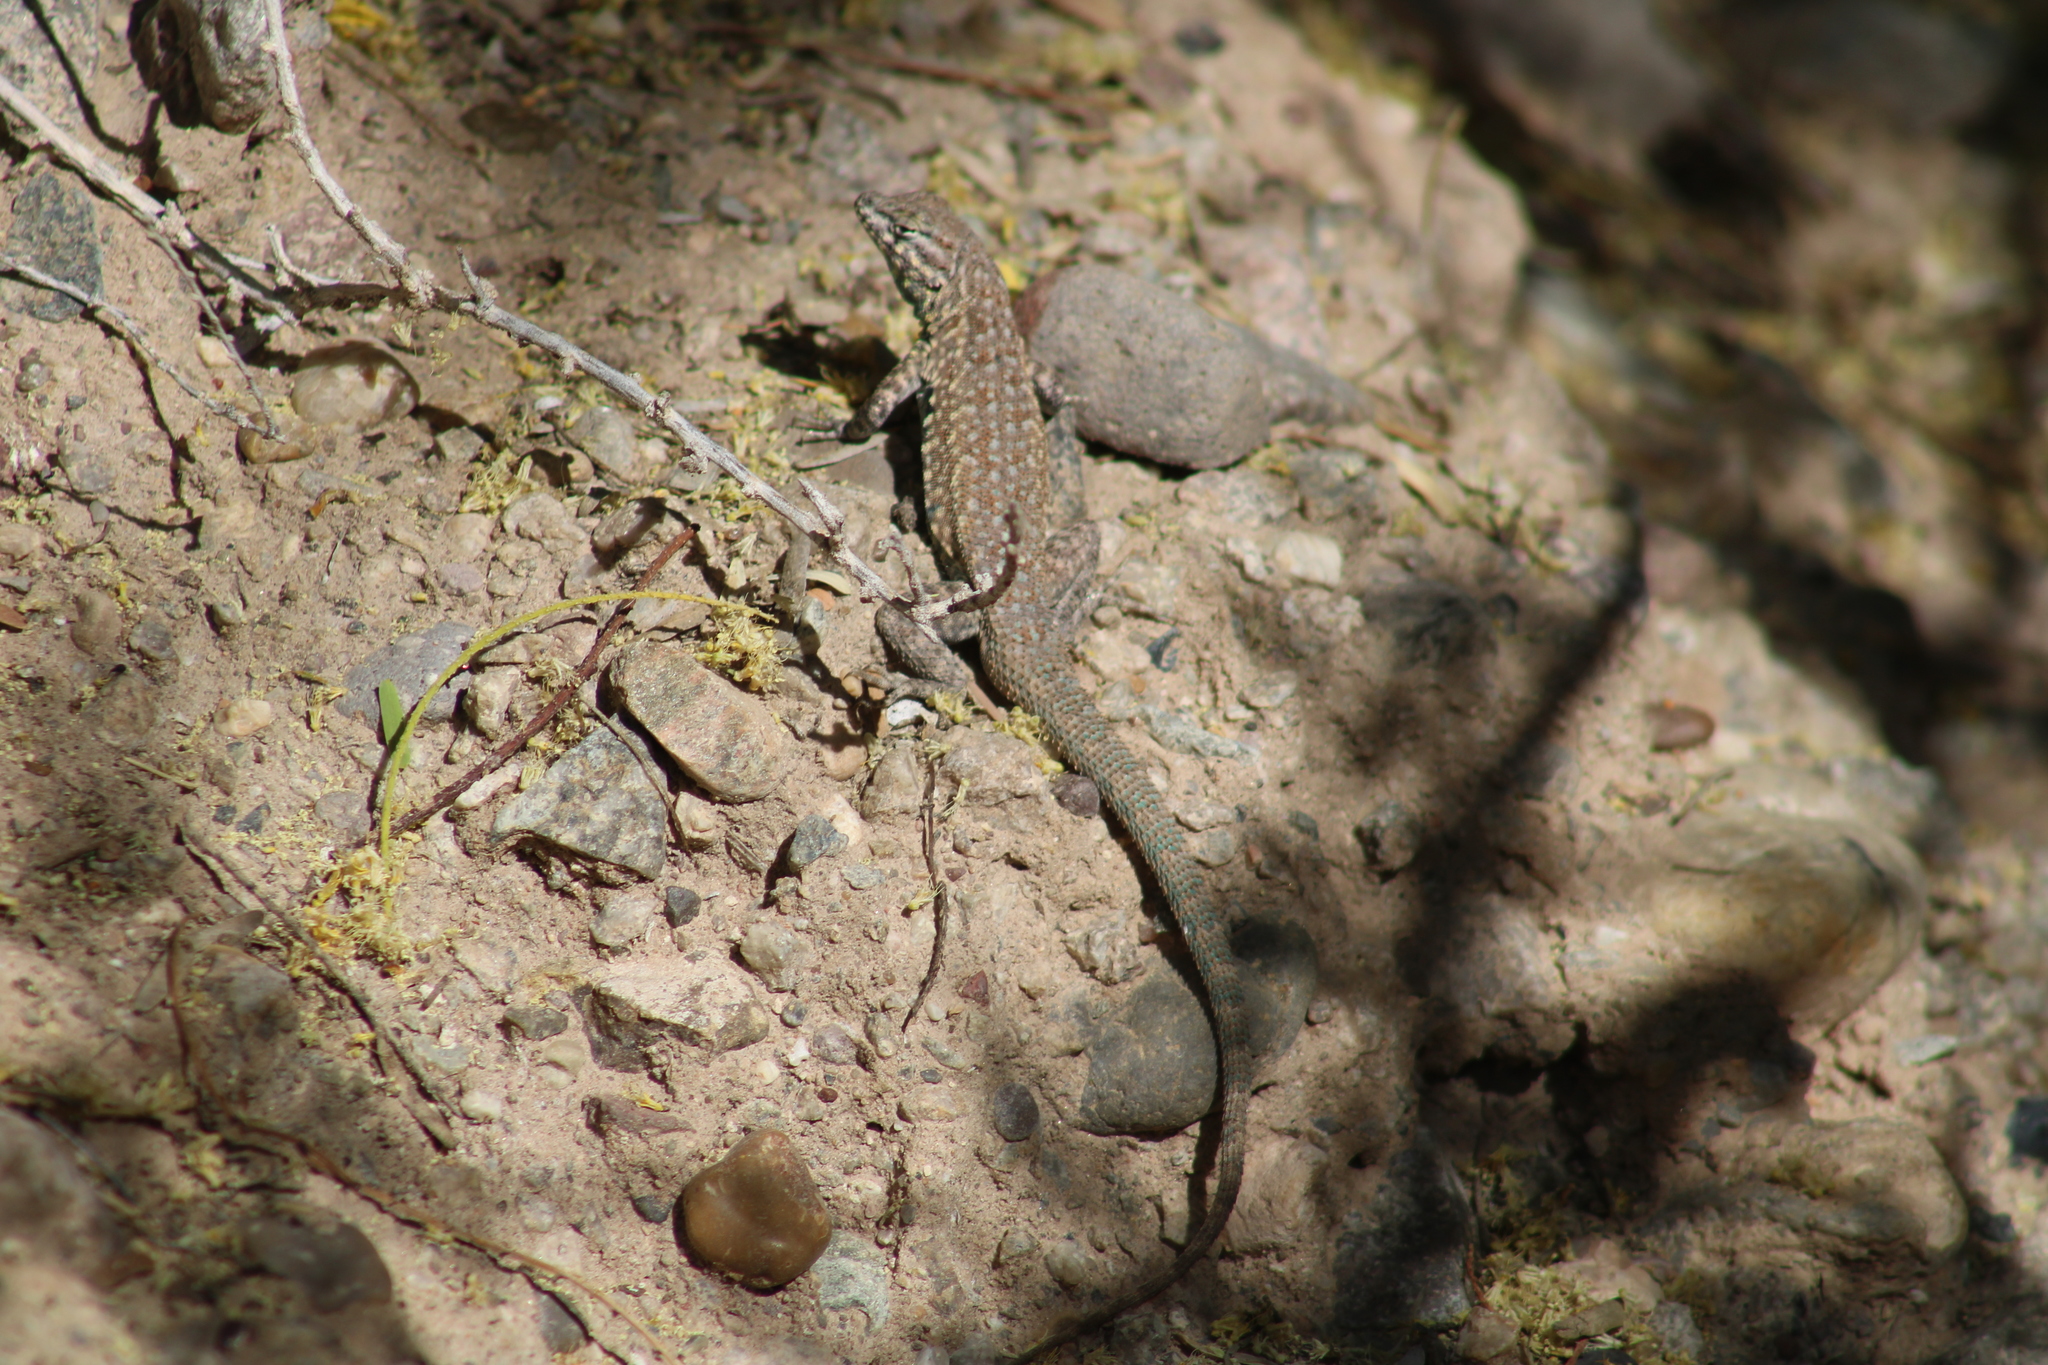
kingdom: Animalia
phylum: Chordata
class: Squamata
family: Phrynosomatidae
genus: Uta
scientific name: Uta stansburiana
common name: Side-blotched lizard
